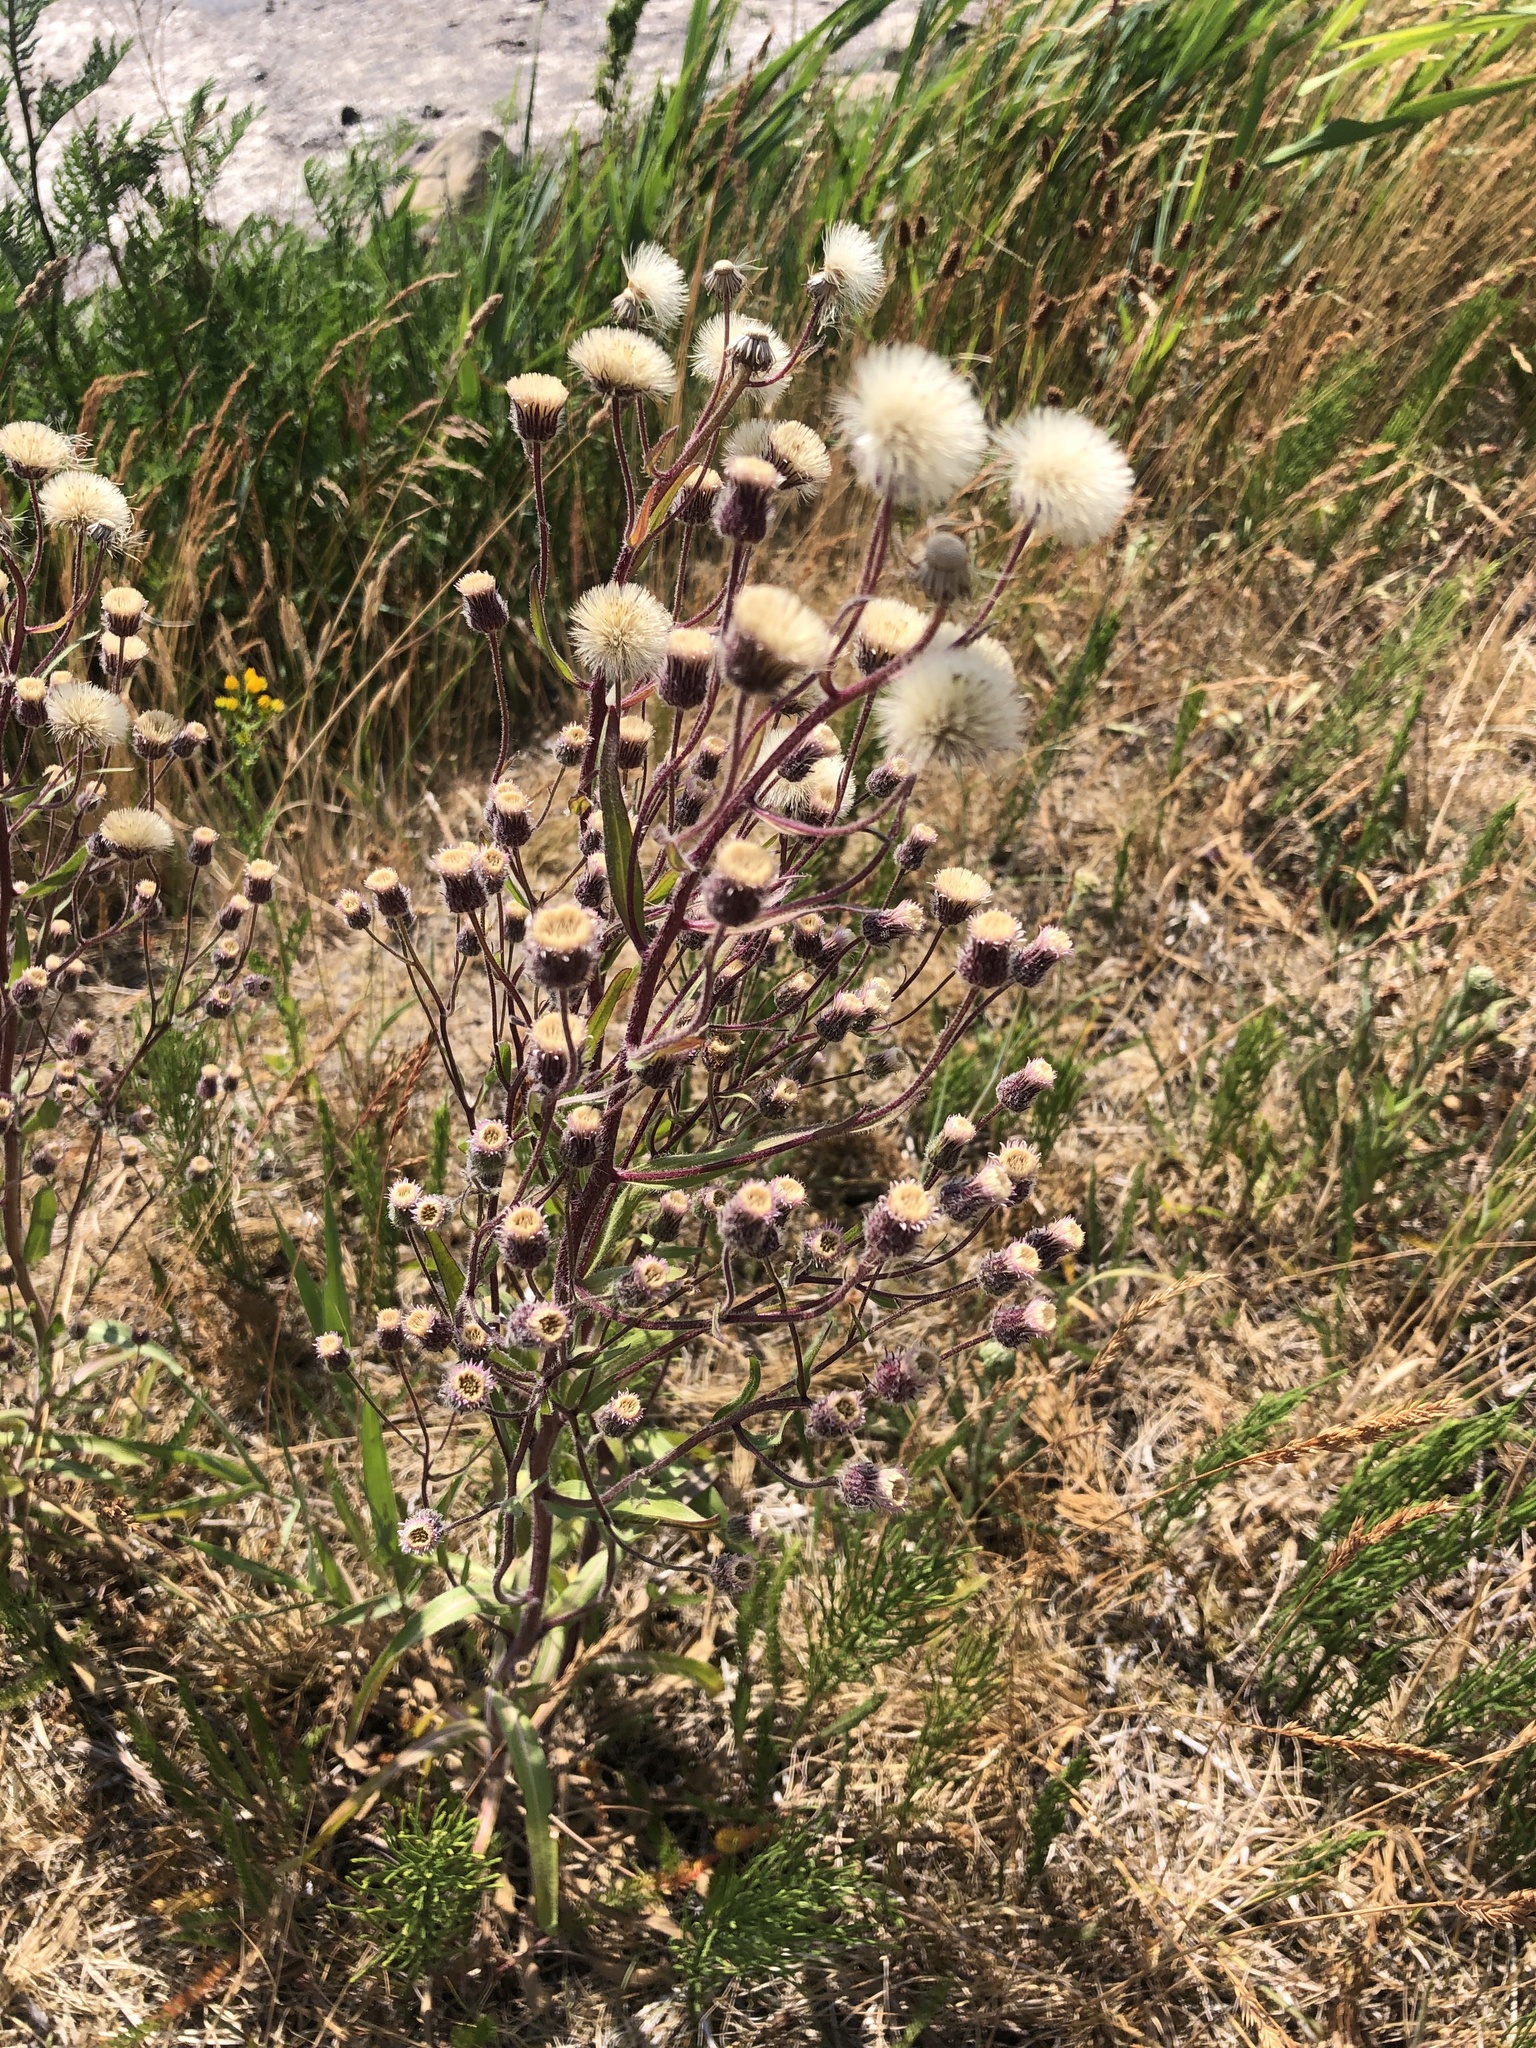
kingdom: Plantae
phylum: Tracheophyta
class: Magnoliopsida
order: Asterales
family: Asteraceae
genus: Erigeron
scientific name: Erigeron acris
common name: Blue fleabane
